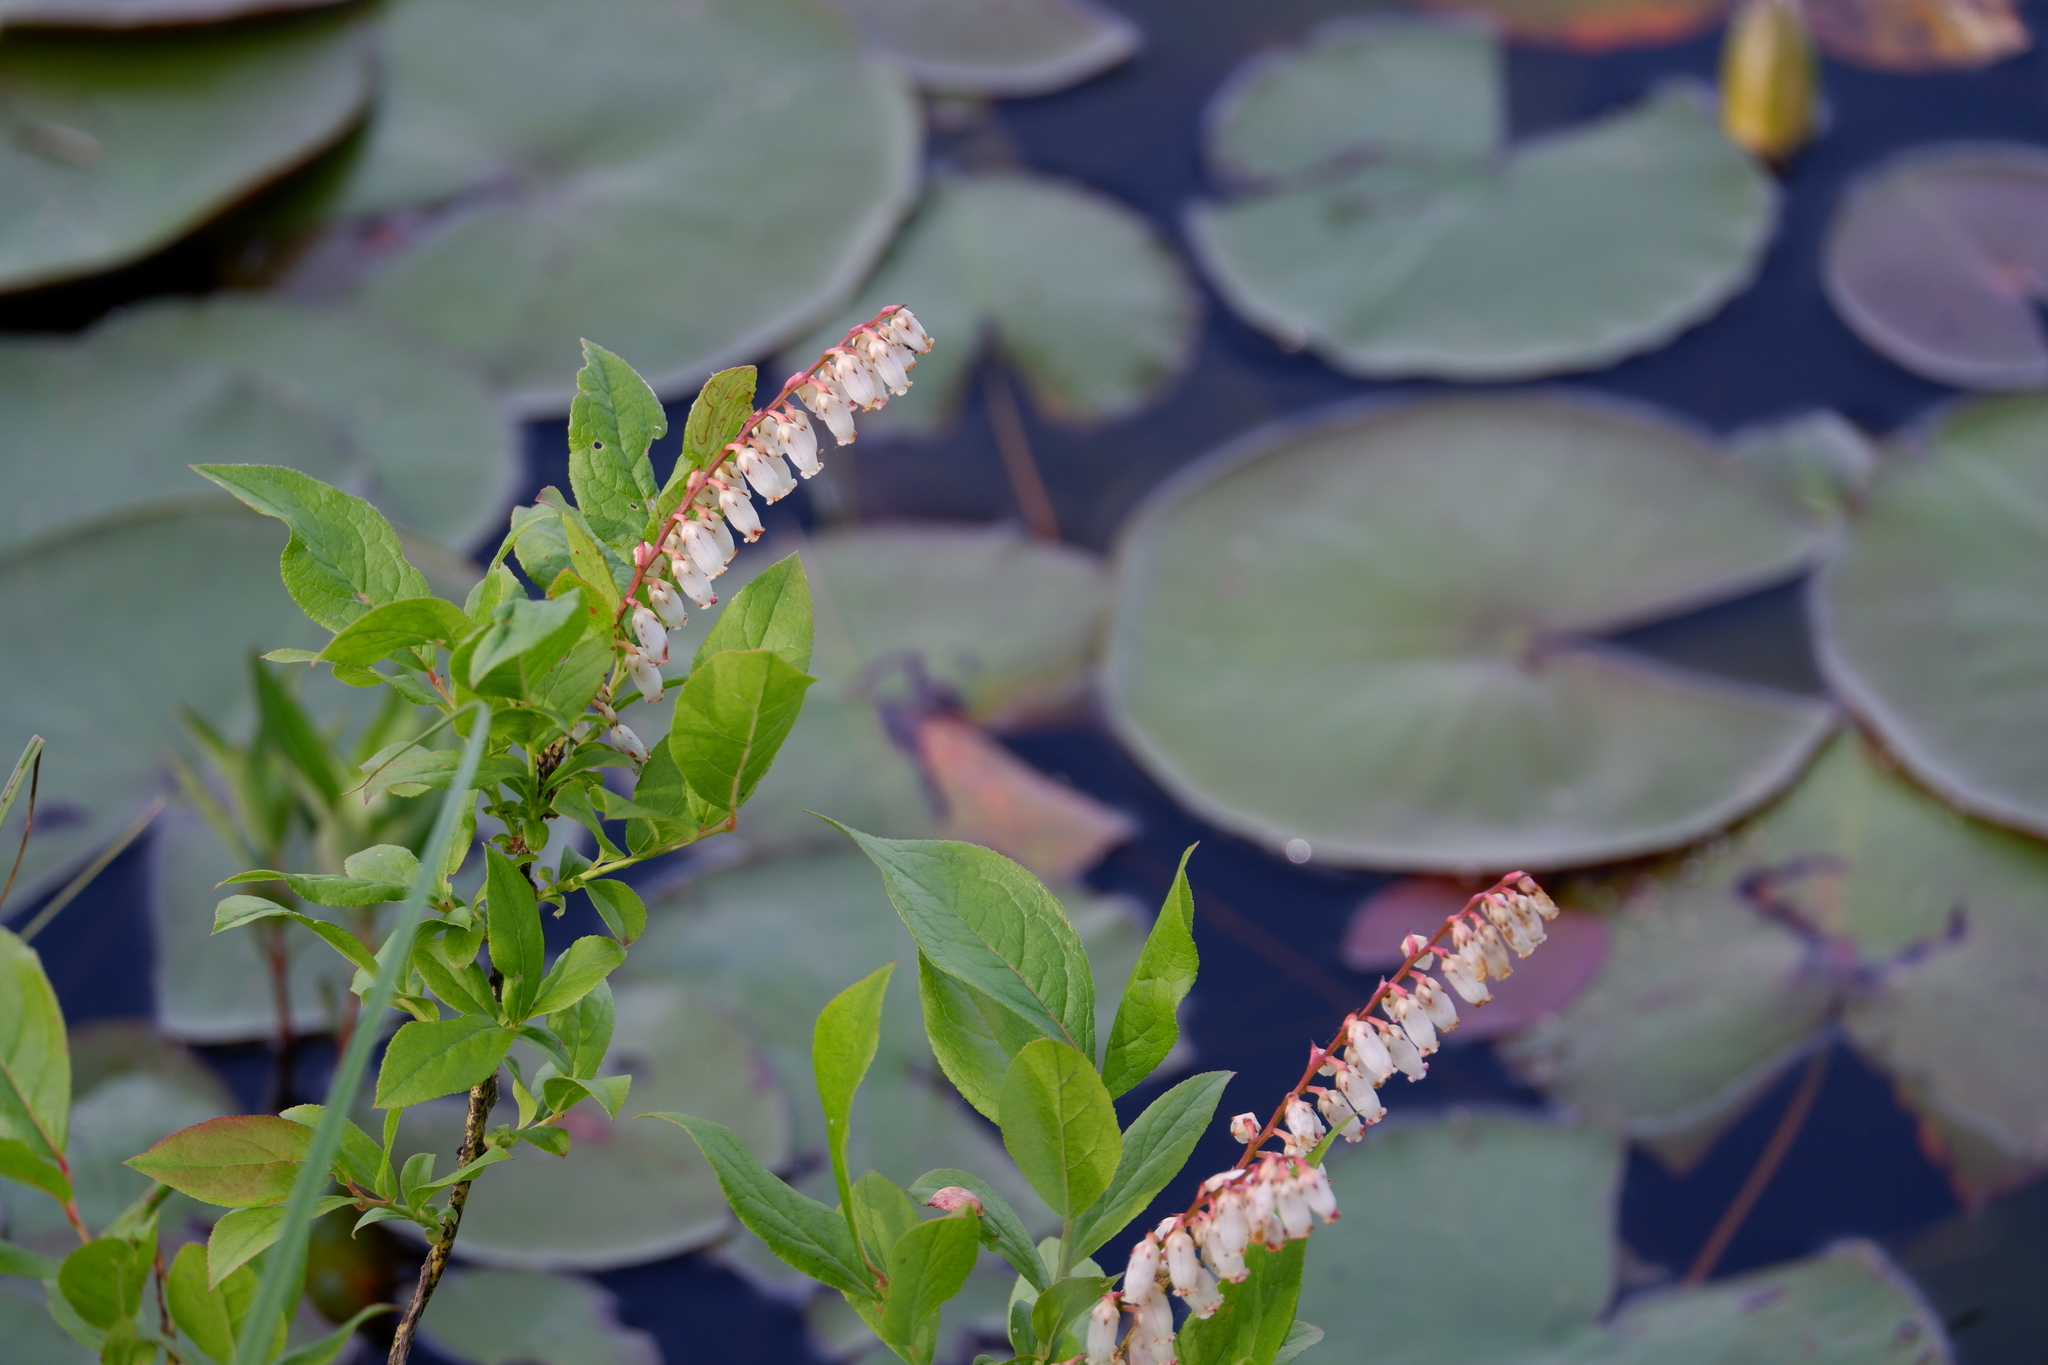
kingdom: Plantae
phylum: Tracheophyta
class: Magnoliopsida
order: Ericales
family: Ericaceae
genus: Eubotrys
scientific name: Eubotrys racemosa
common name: Fetterbush
